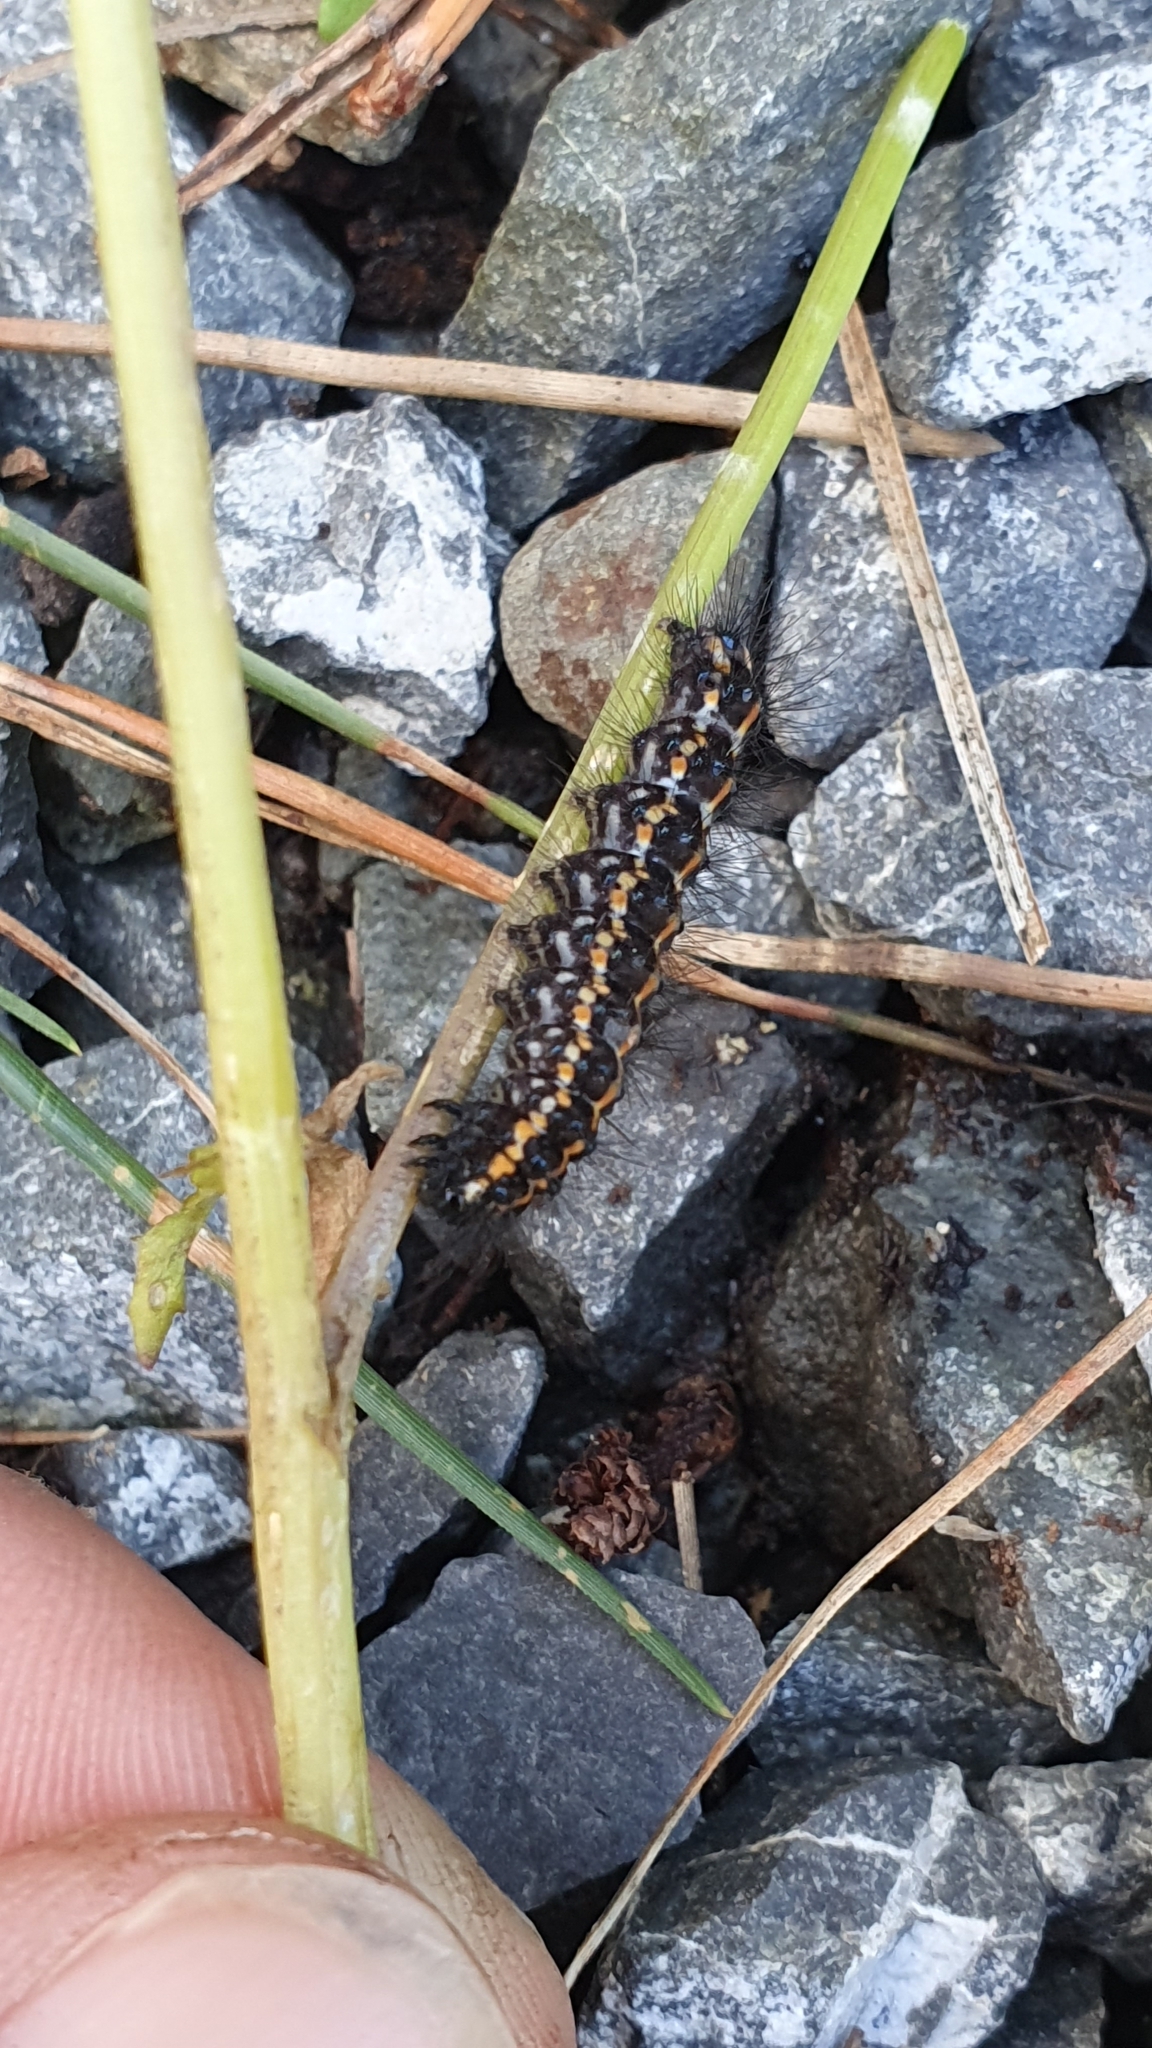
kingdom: Animalia
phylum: Arthropoda
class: Insecta
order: Lepidoptera
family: Erebidae
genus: Nyctemera
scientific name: Nyctemera annulatum
